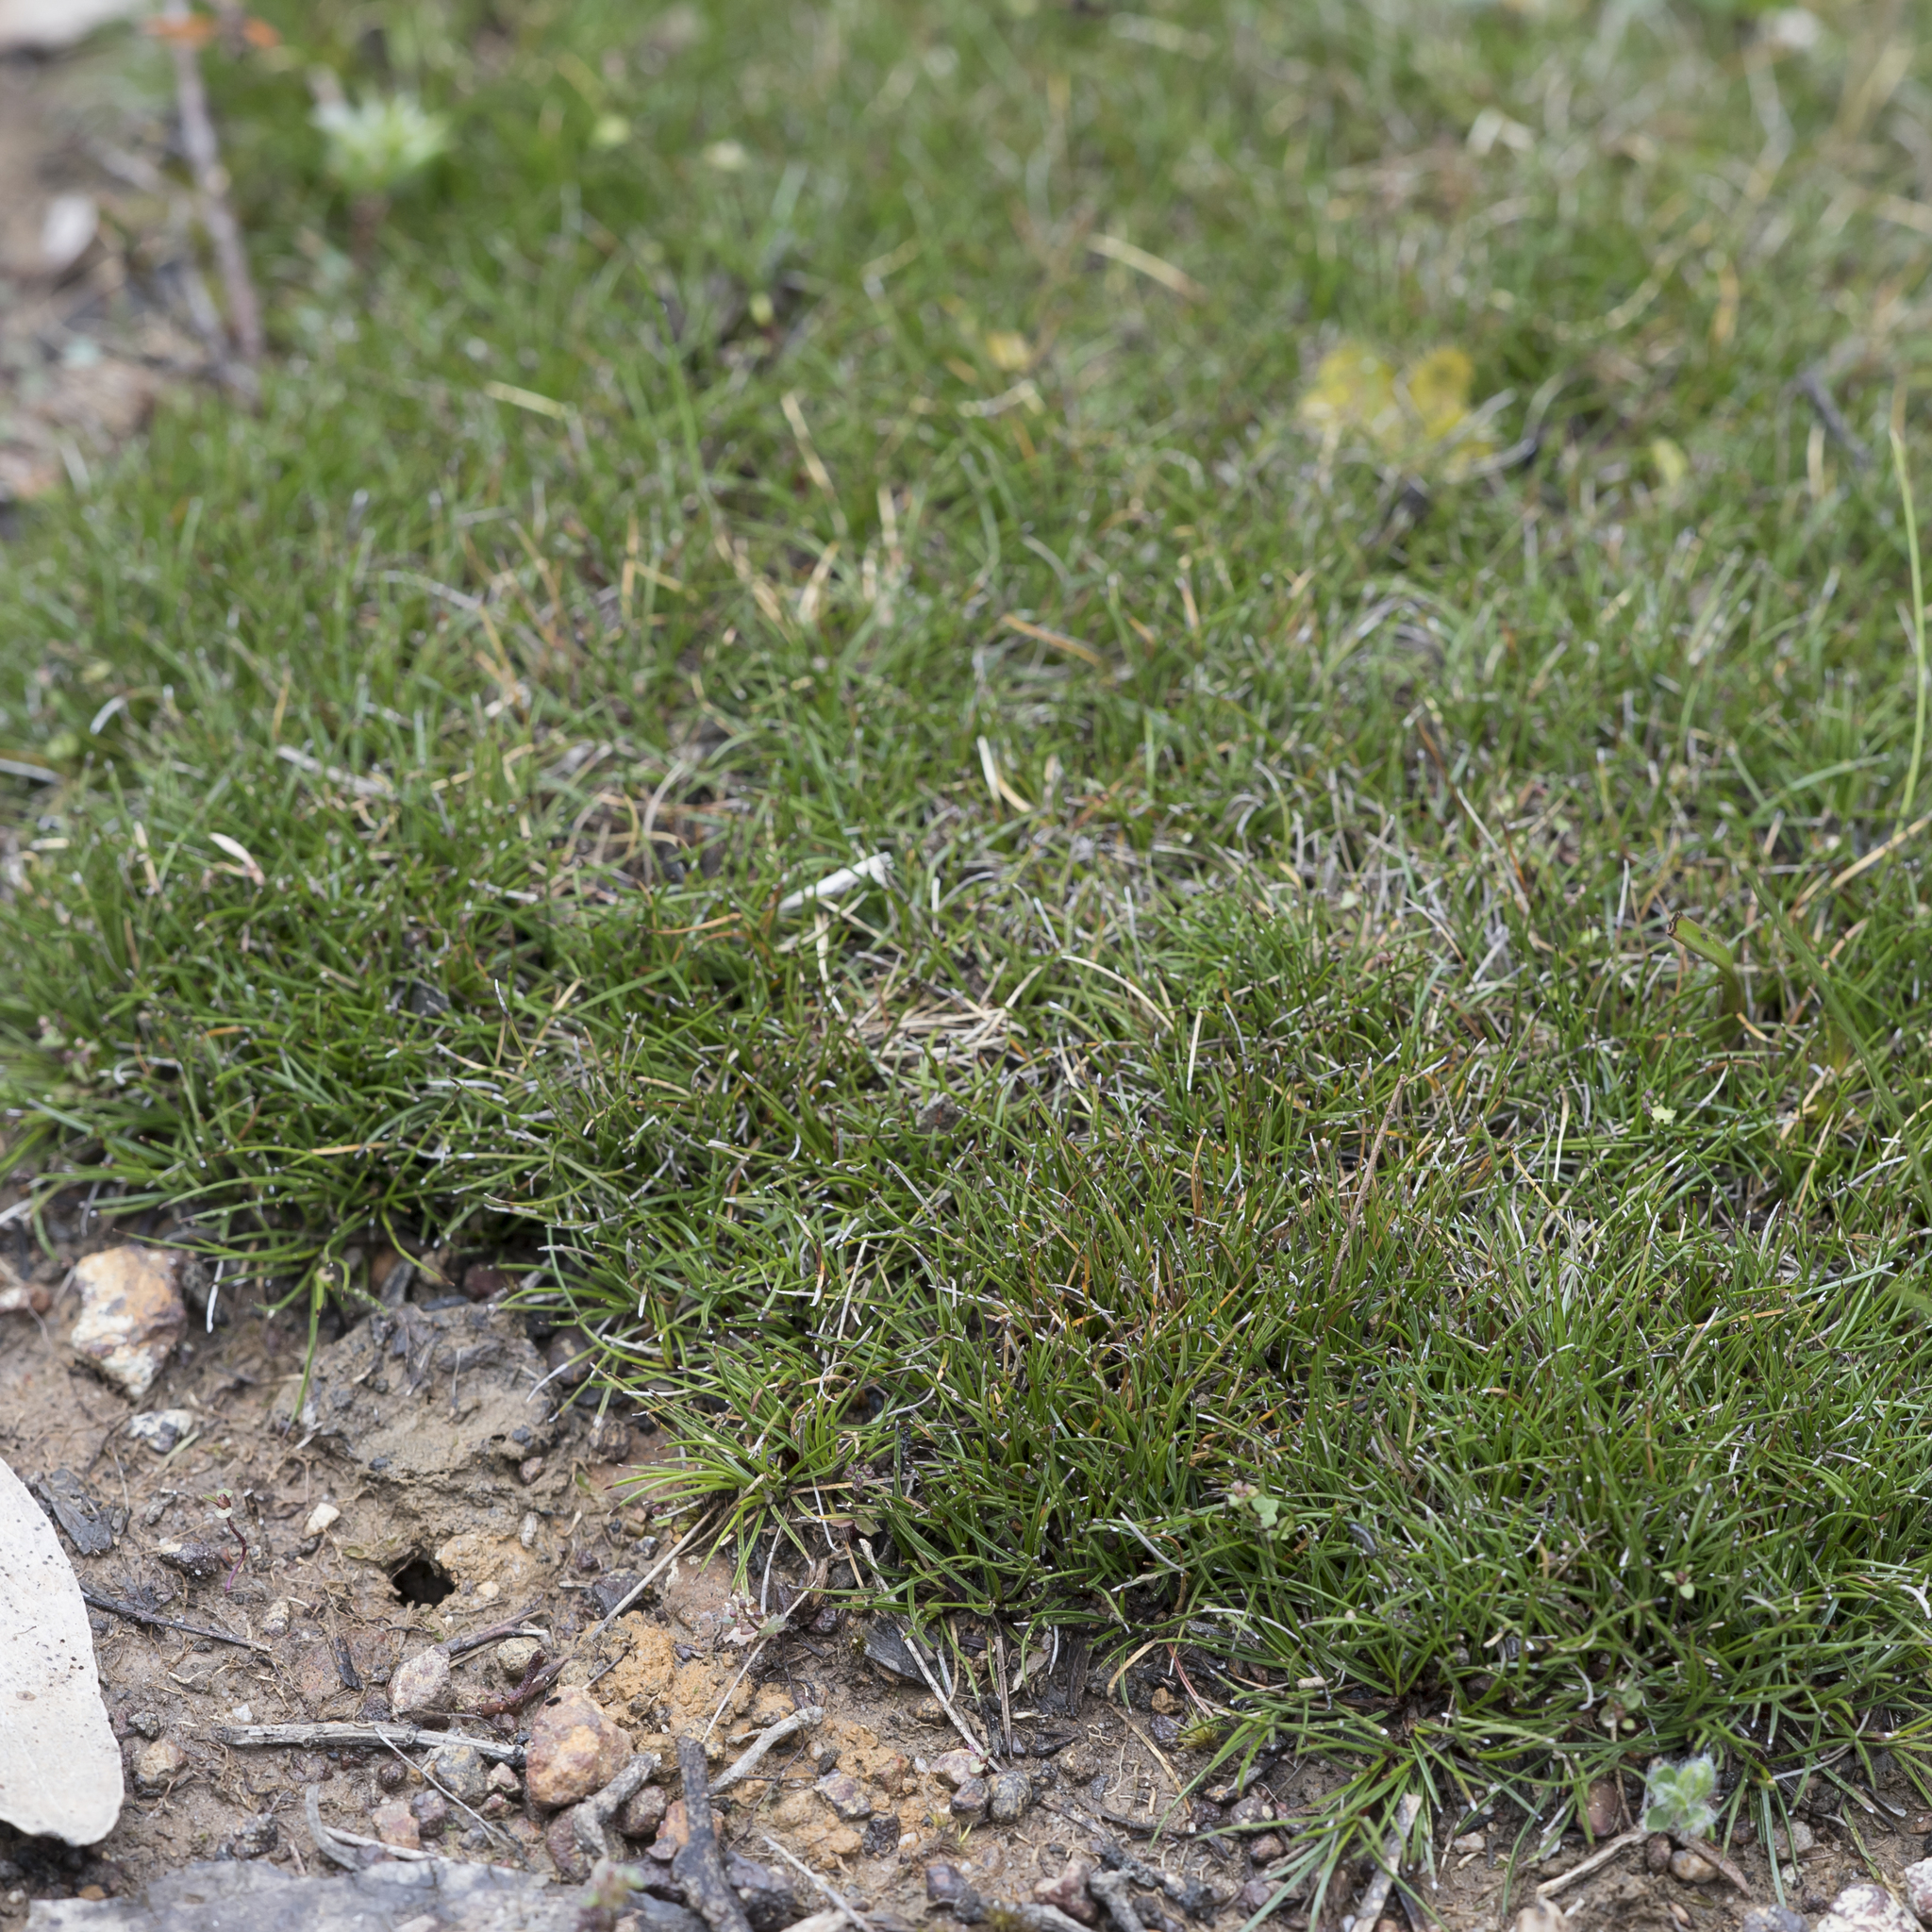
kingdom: Plantae
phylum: Tracheophyta
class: Liliopsida
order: Poales
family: Cyperaceae
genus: Schoenus
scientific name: Schoenus breviculmis
